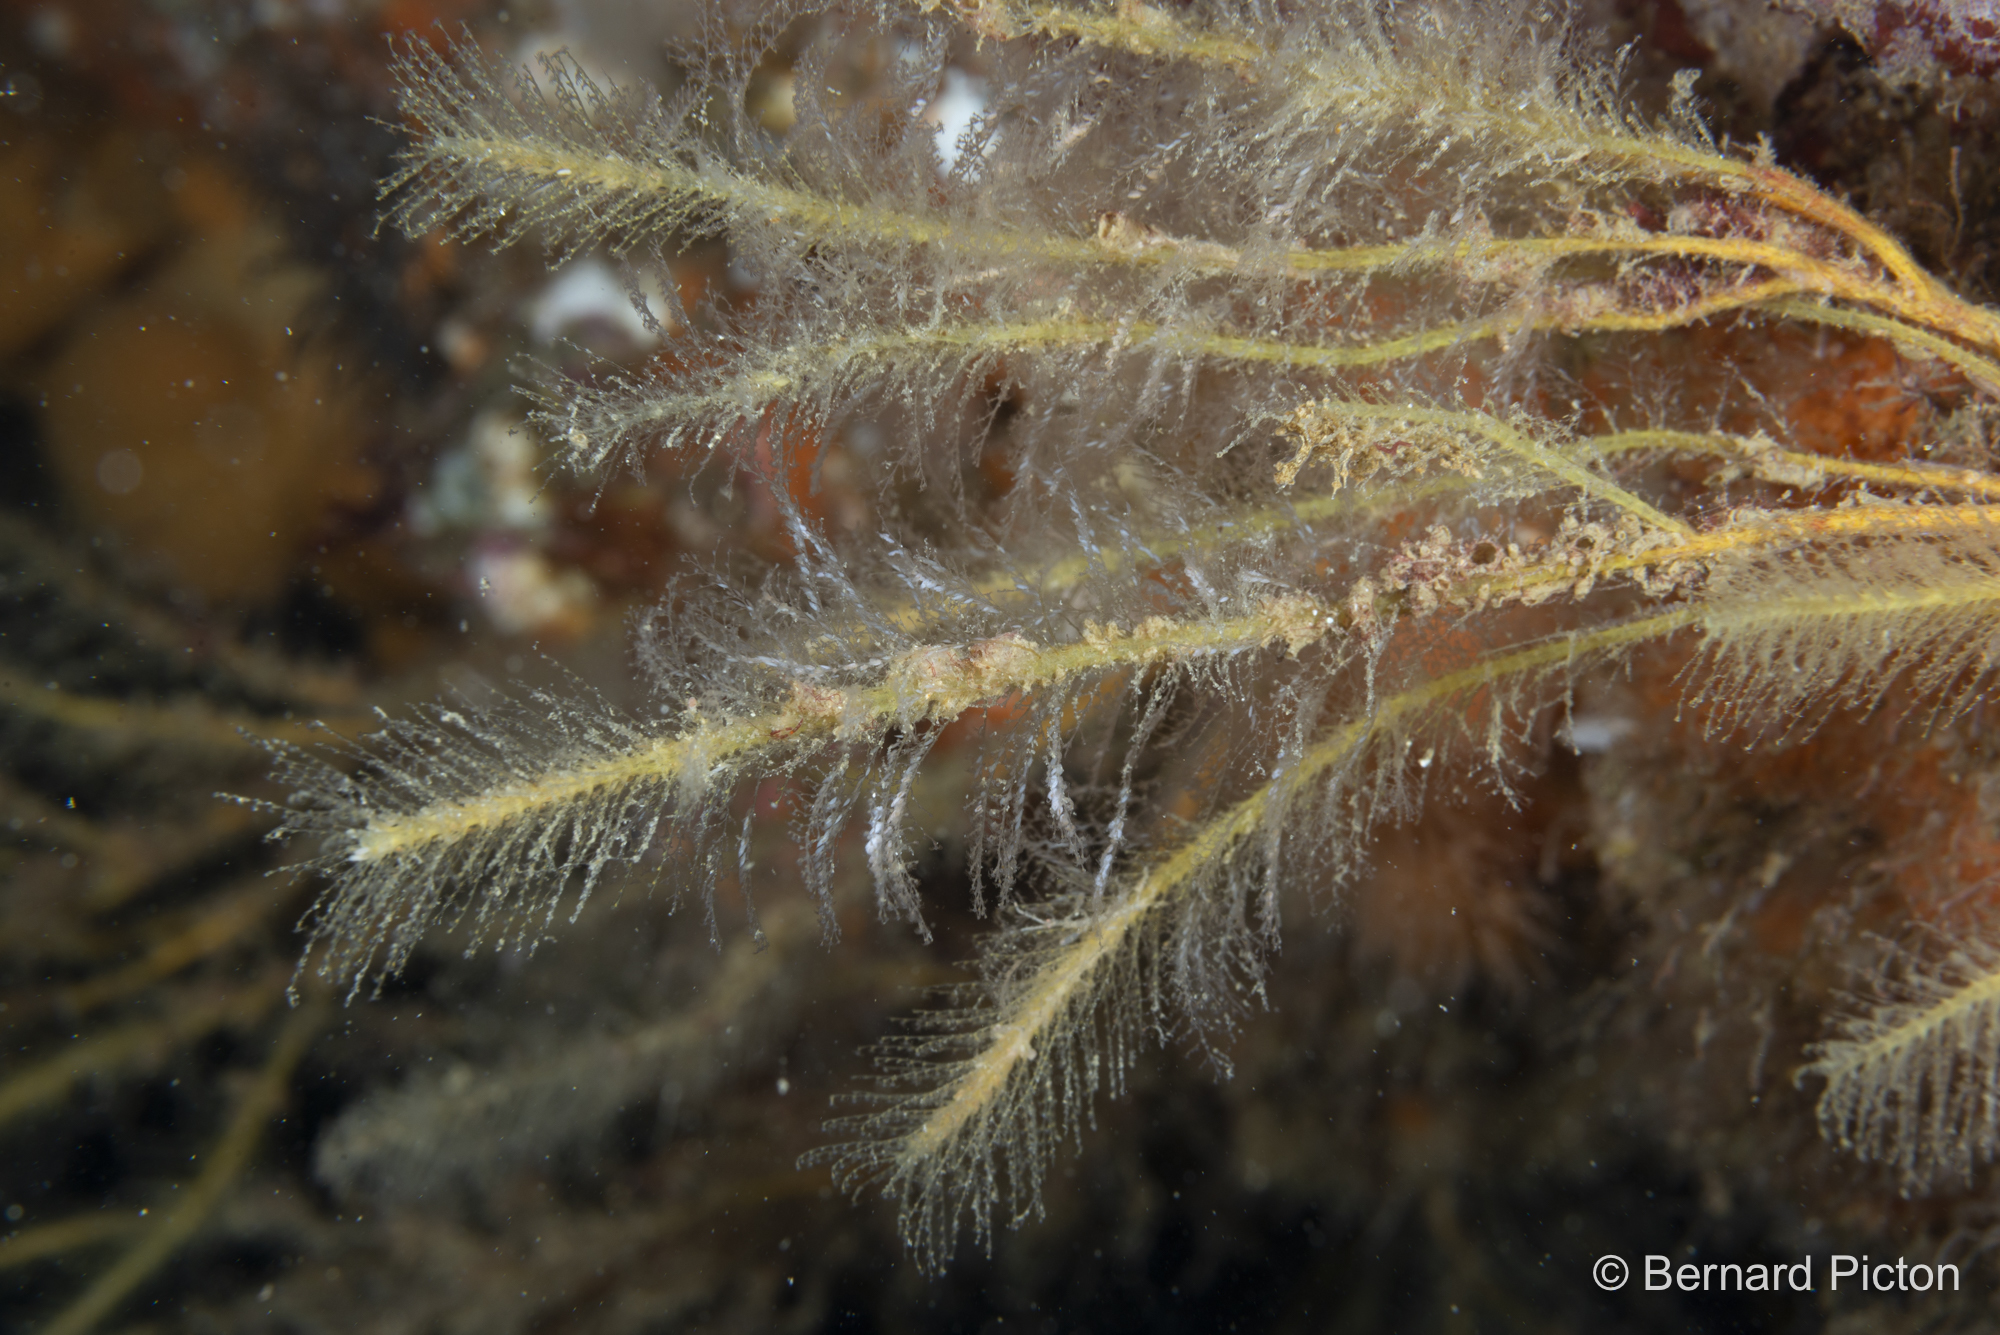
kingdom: Animalia
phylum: Cnidaria
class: Hydrozoa
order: Leptothecata
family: Plumulariidae
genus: Nemertesia
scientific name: Nemertesia ramosa
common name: Hydroid
